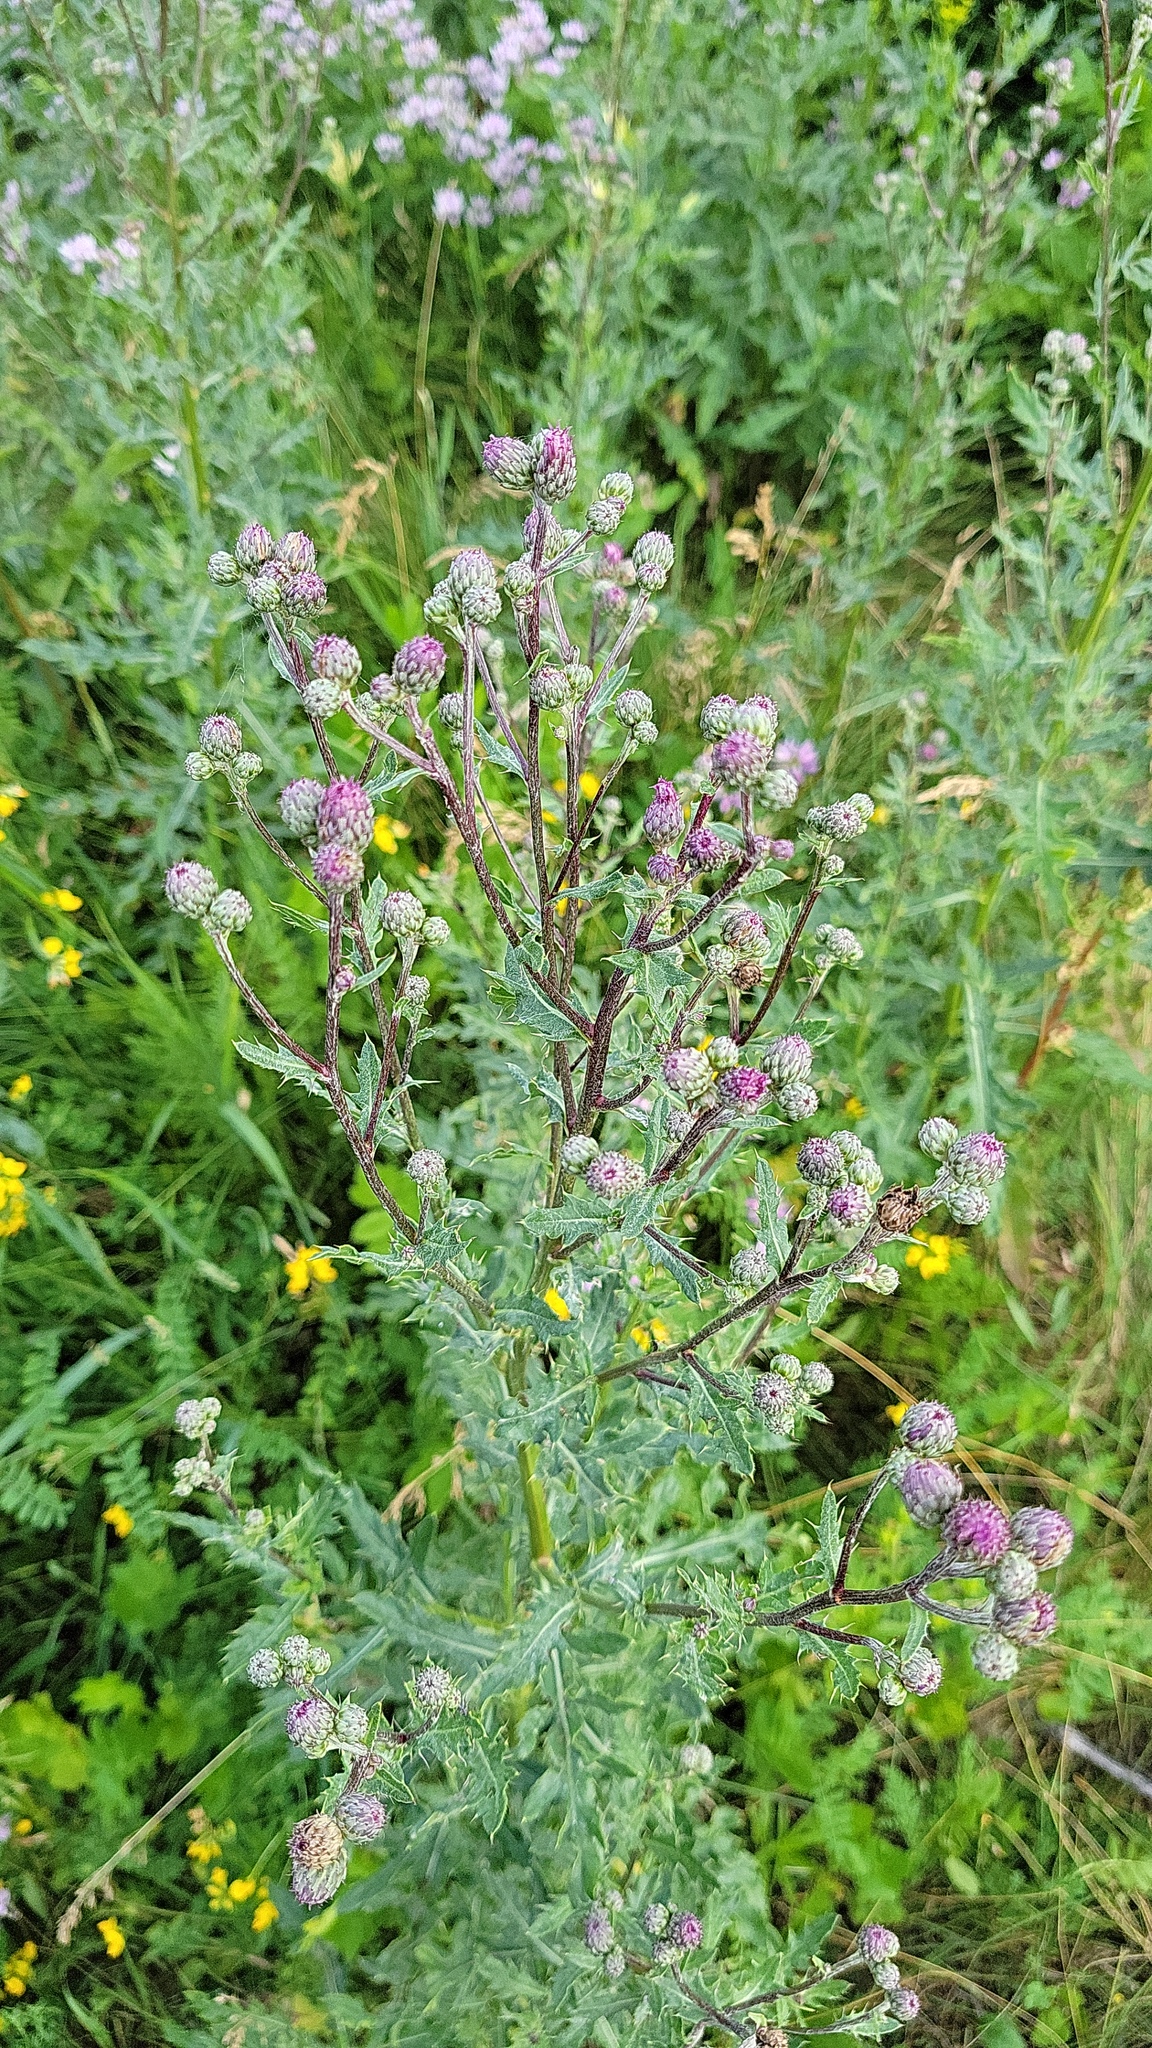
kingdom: Plantae
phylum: Tracheophyta
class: Magnoliopsida
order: Asterales
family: Asteraceae
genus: Cirsium
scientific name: Cirsium arvense
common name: Creeping thistle
